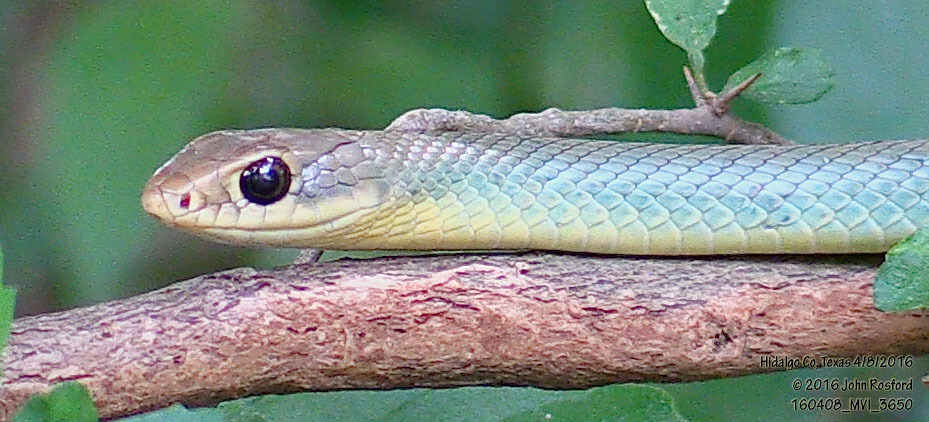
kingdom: Animalia
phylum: Chordata
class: Squamata
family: Colubridae
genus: Coluber
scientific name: Coluber constrictor
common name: Eastern racer
